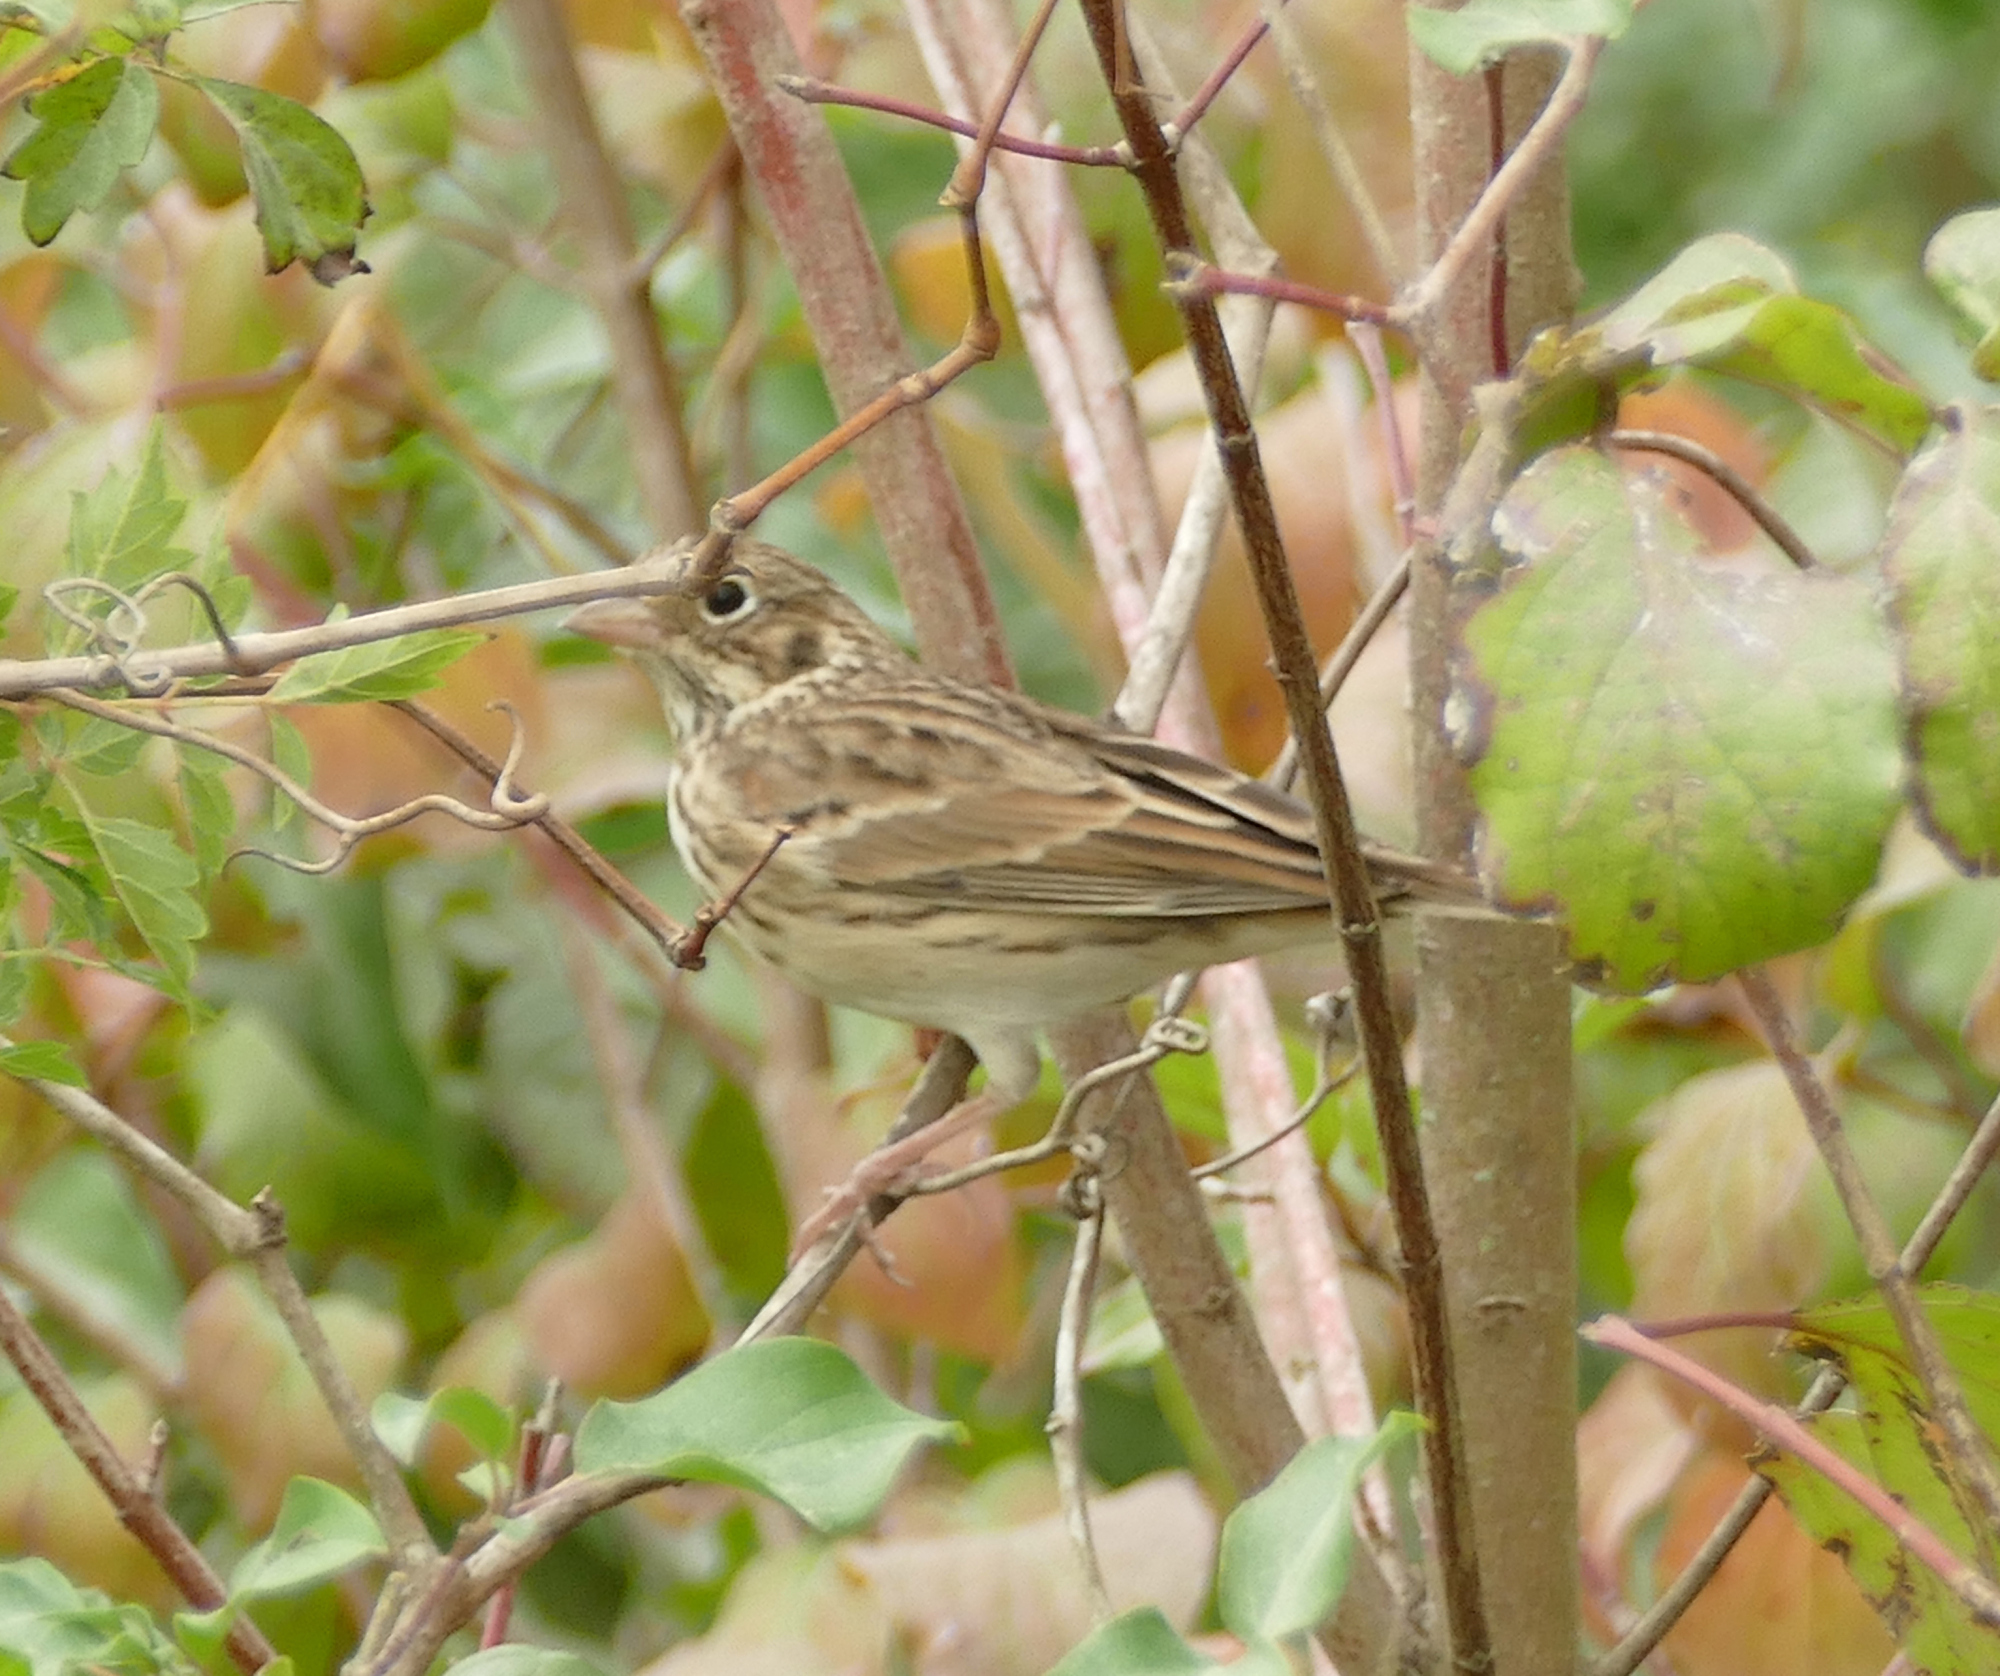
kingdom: Animalia
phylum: Chordata
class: Aves
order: Passeriformes
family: Passerellidae
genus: Pooecetes
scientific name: Pooecetes gramineus
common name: Vesper sparrow
